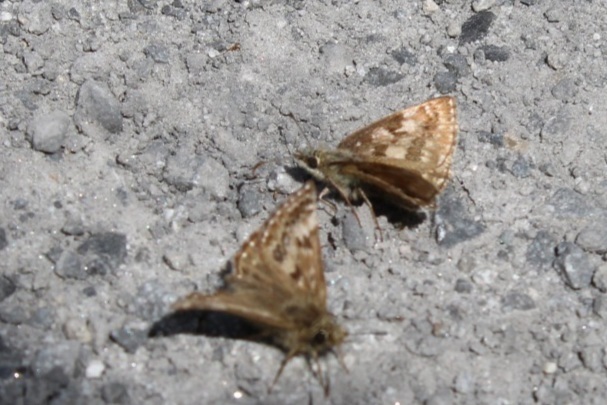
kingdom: Animalia
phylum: Arthropoda
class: Insecta
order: Lepidoptera
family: Hesperiidae
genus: Erynnis
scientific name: Erynnis tages
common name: Dingy skipper
